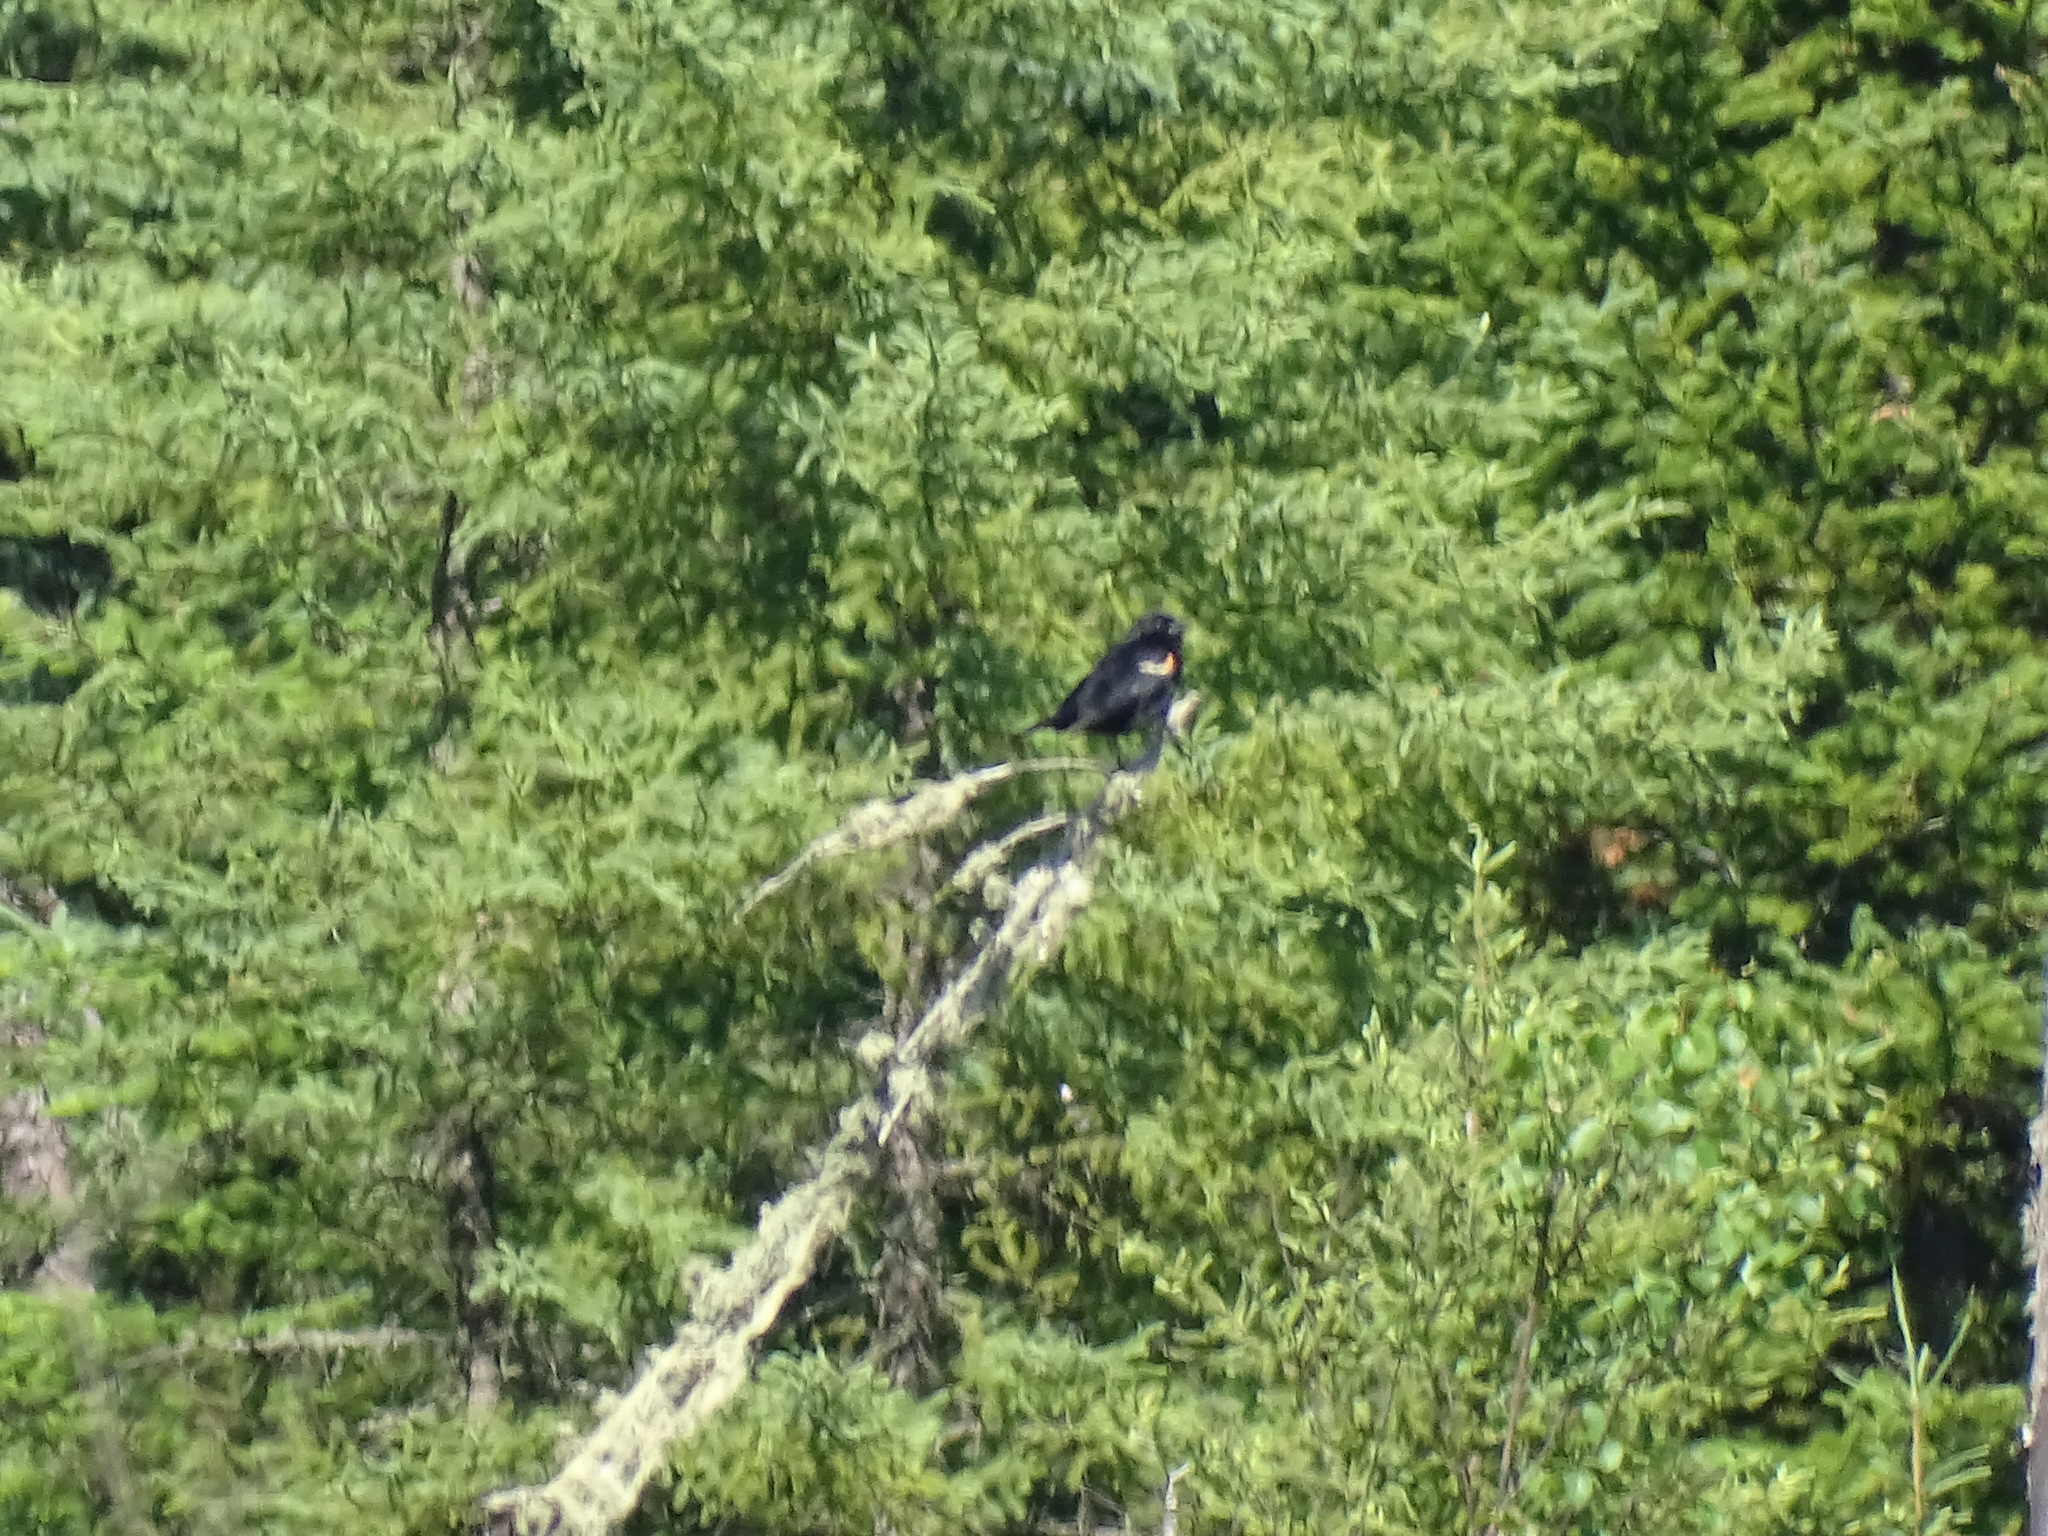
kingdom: Animalia
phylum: Chordata
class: Aves
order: Passeriformes
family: Icteridae
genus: Agelaius
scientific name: Agelaius phoeniceus
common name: Red-winged blackbird
